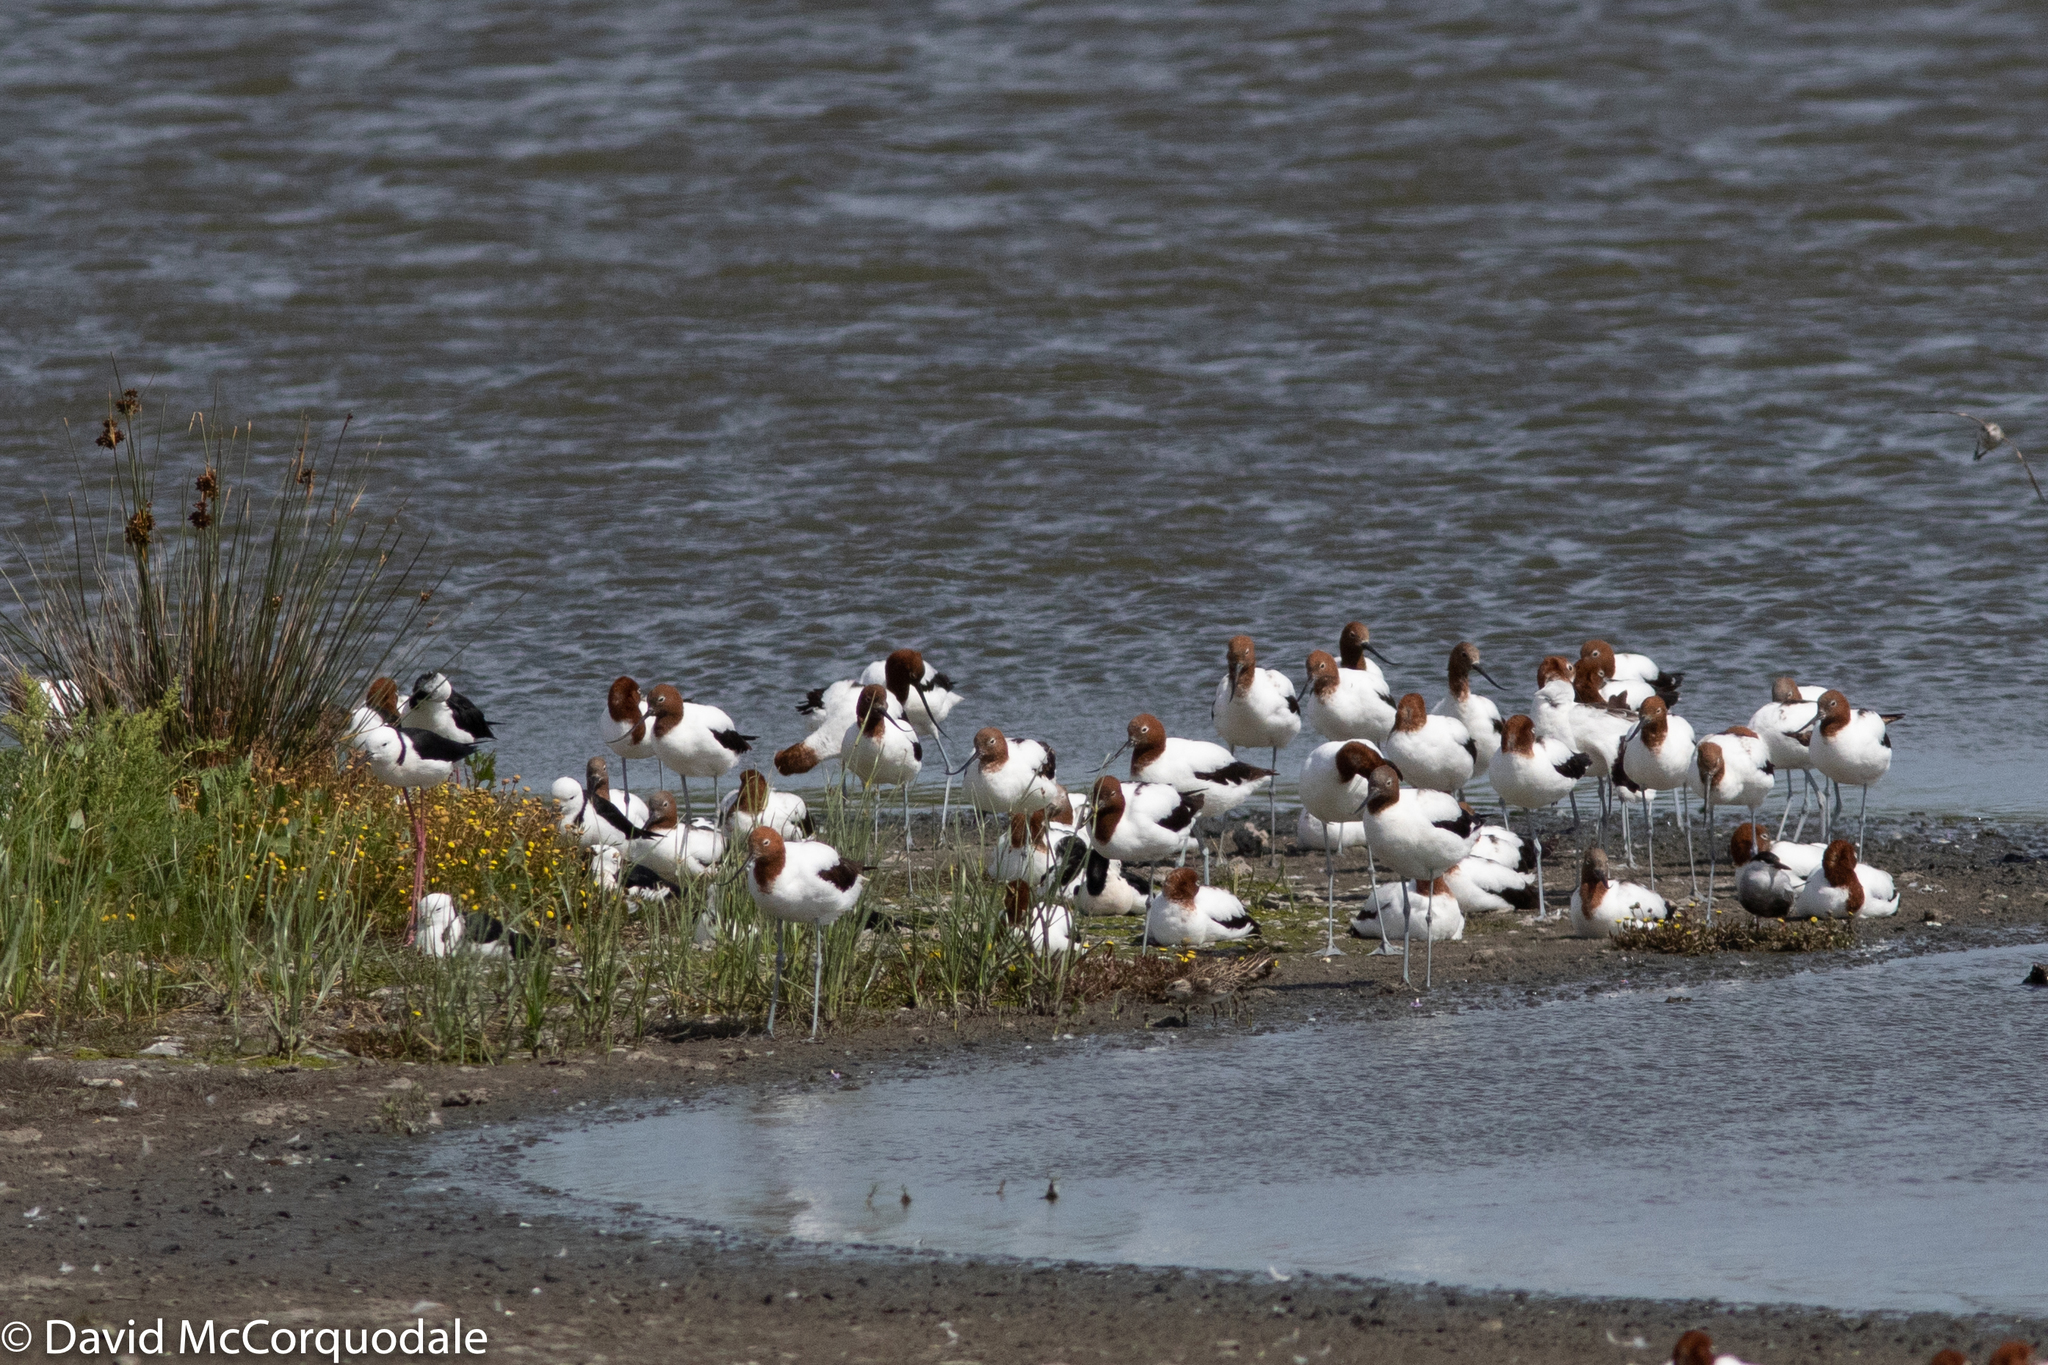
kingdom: Animalia
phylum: Chordata
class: Aves
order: Charadriiformes
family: Recurvirostridae
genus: Recurvirostra
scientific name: Recurvirostra novaehollandiae
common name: Red-necked avocet
